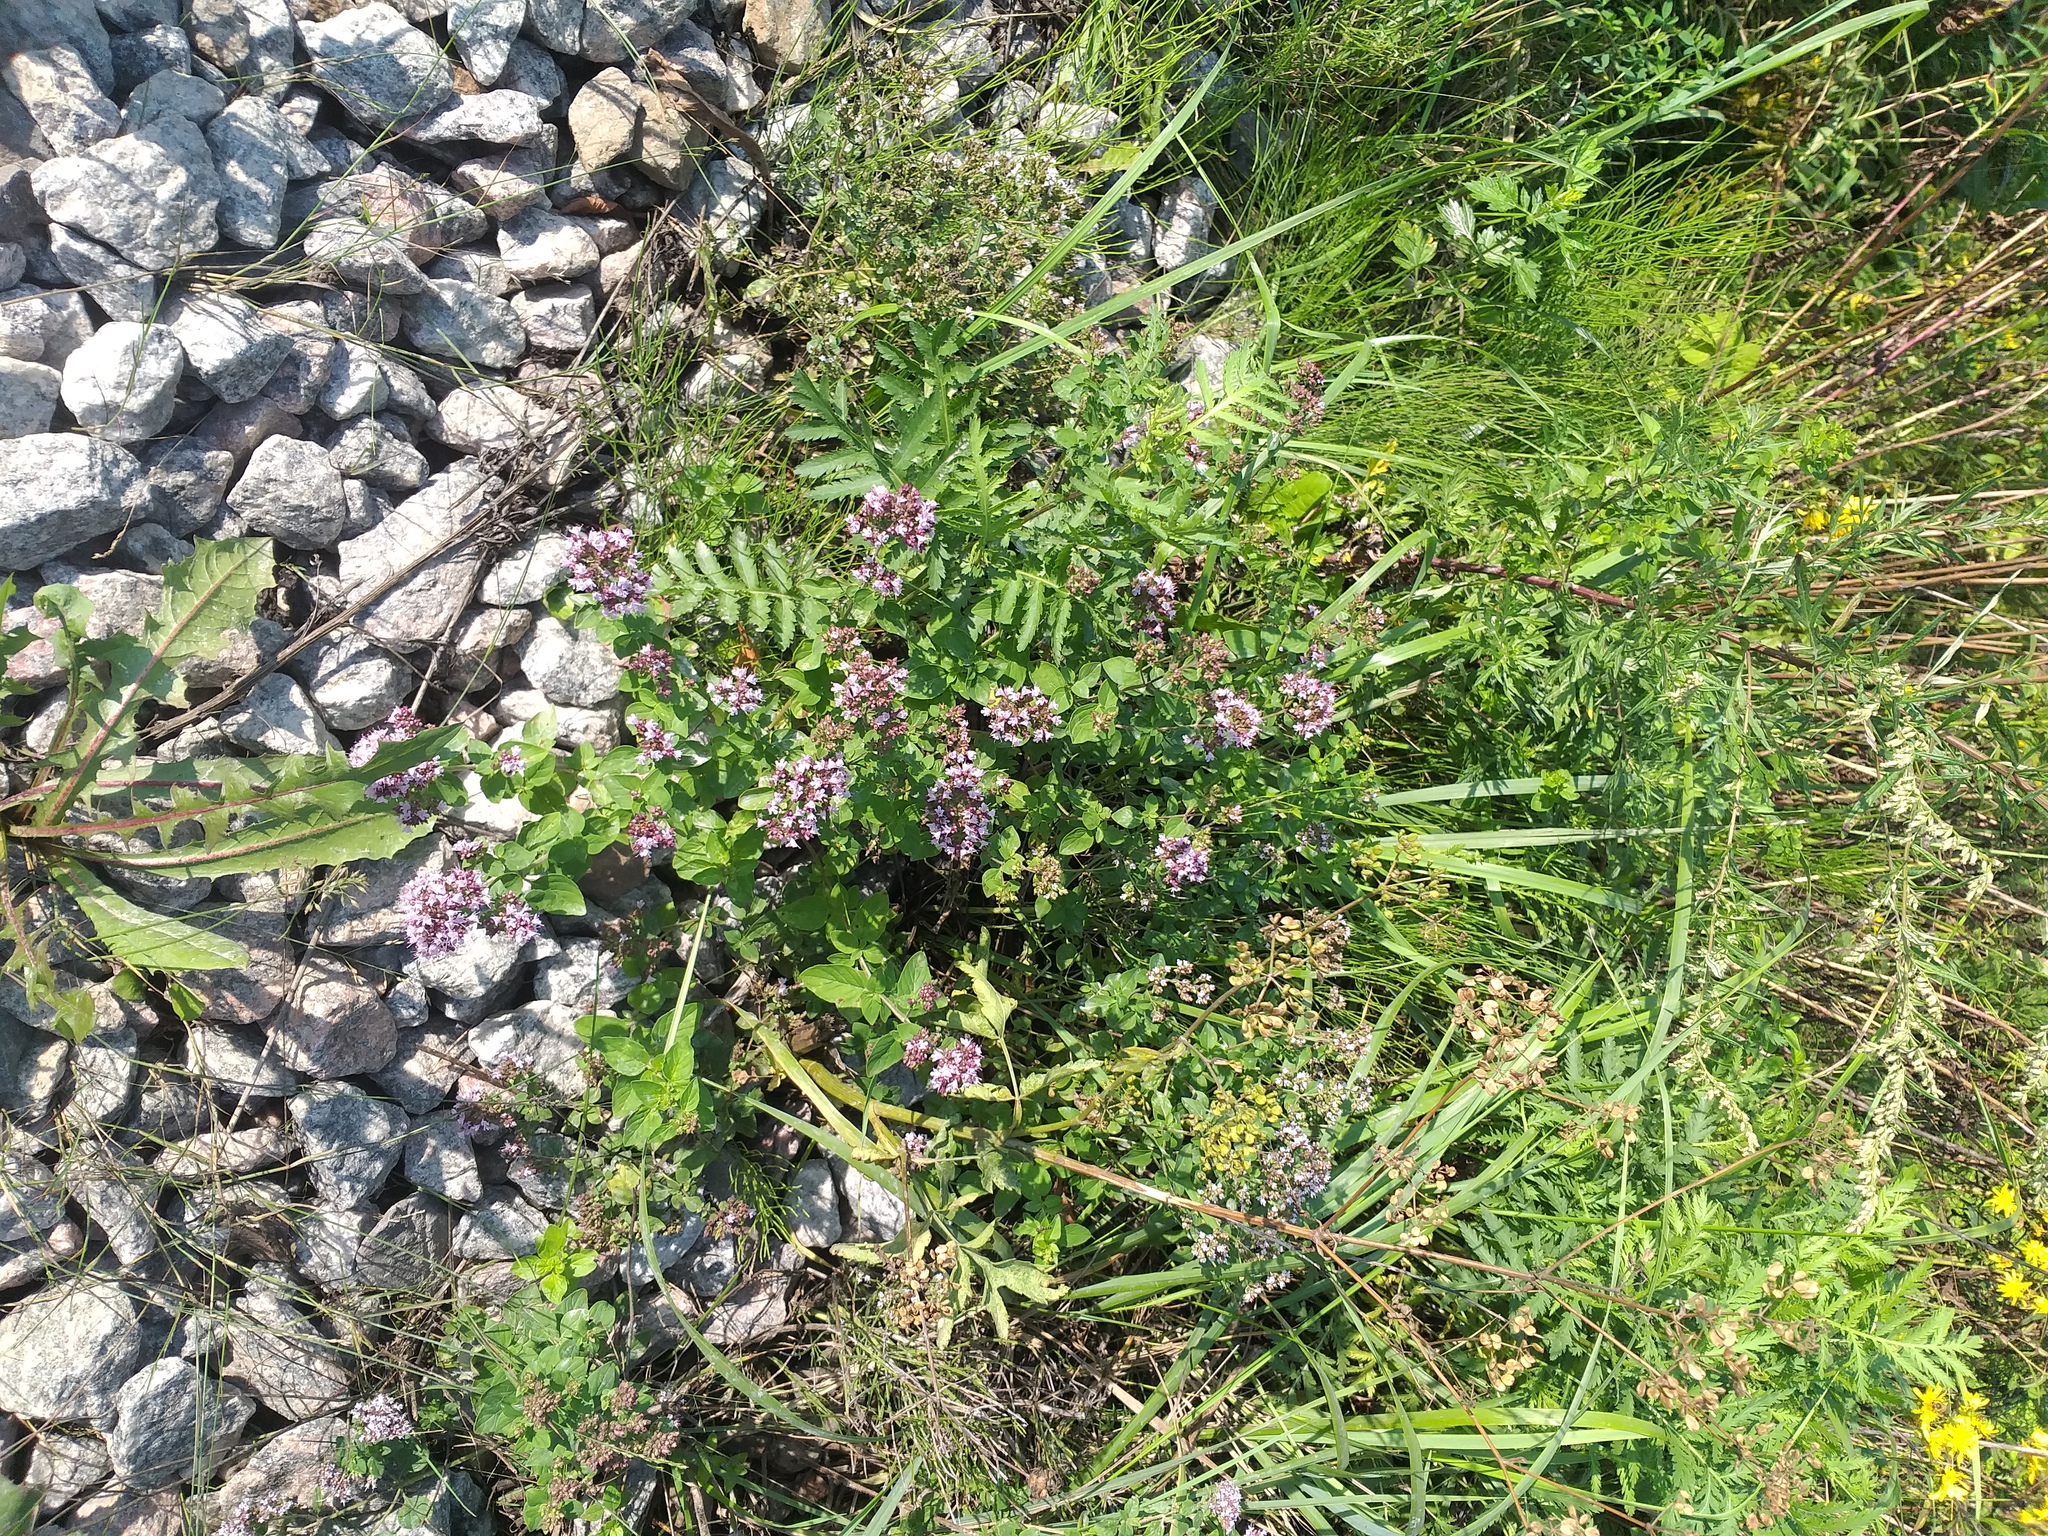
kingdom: Plantae
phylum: Tracheophyta
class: Magnoliopsida
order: Lamiales
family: Lamiaceae
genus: Origanum
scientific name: Origanum vulgare
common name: Wild marjoram
